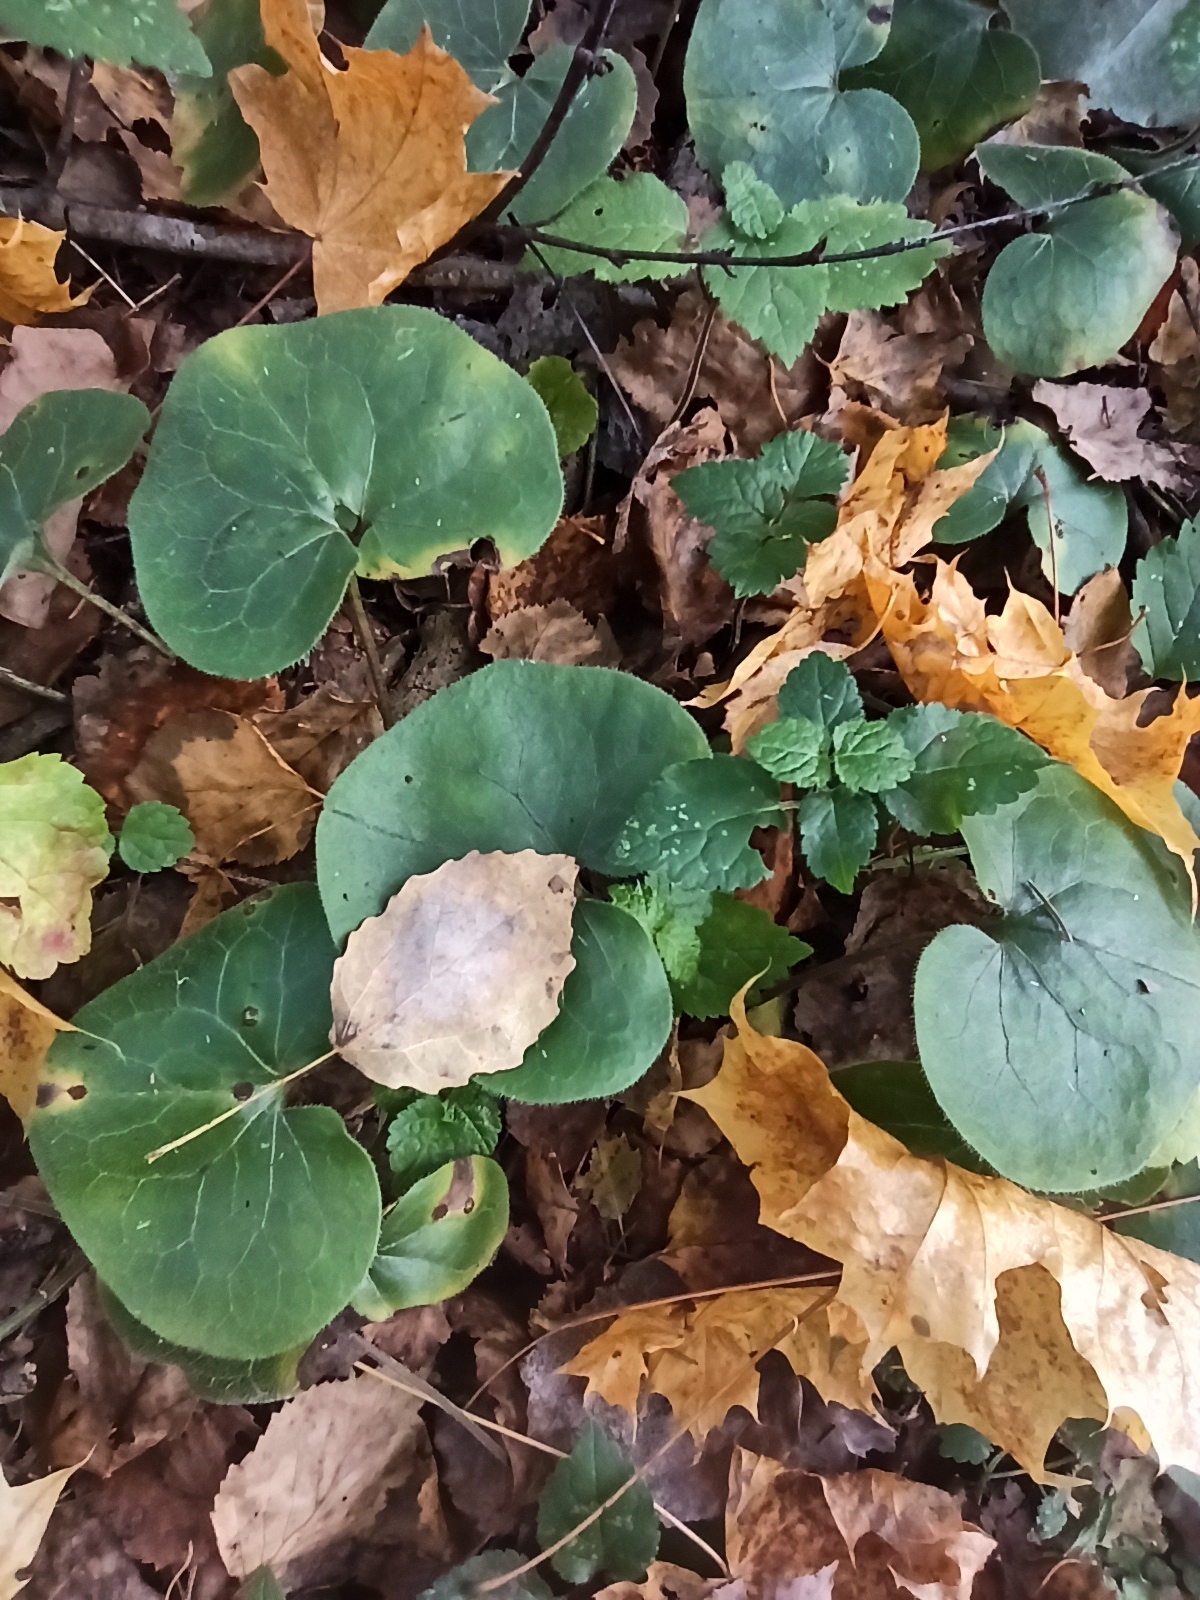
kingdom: Plantae
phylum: Tracheophyta
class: Magnoliopsida
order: Piperales
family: Aristolochiaceae
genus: Asarum
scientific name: Asarum europaeum
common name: Asarabacca
